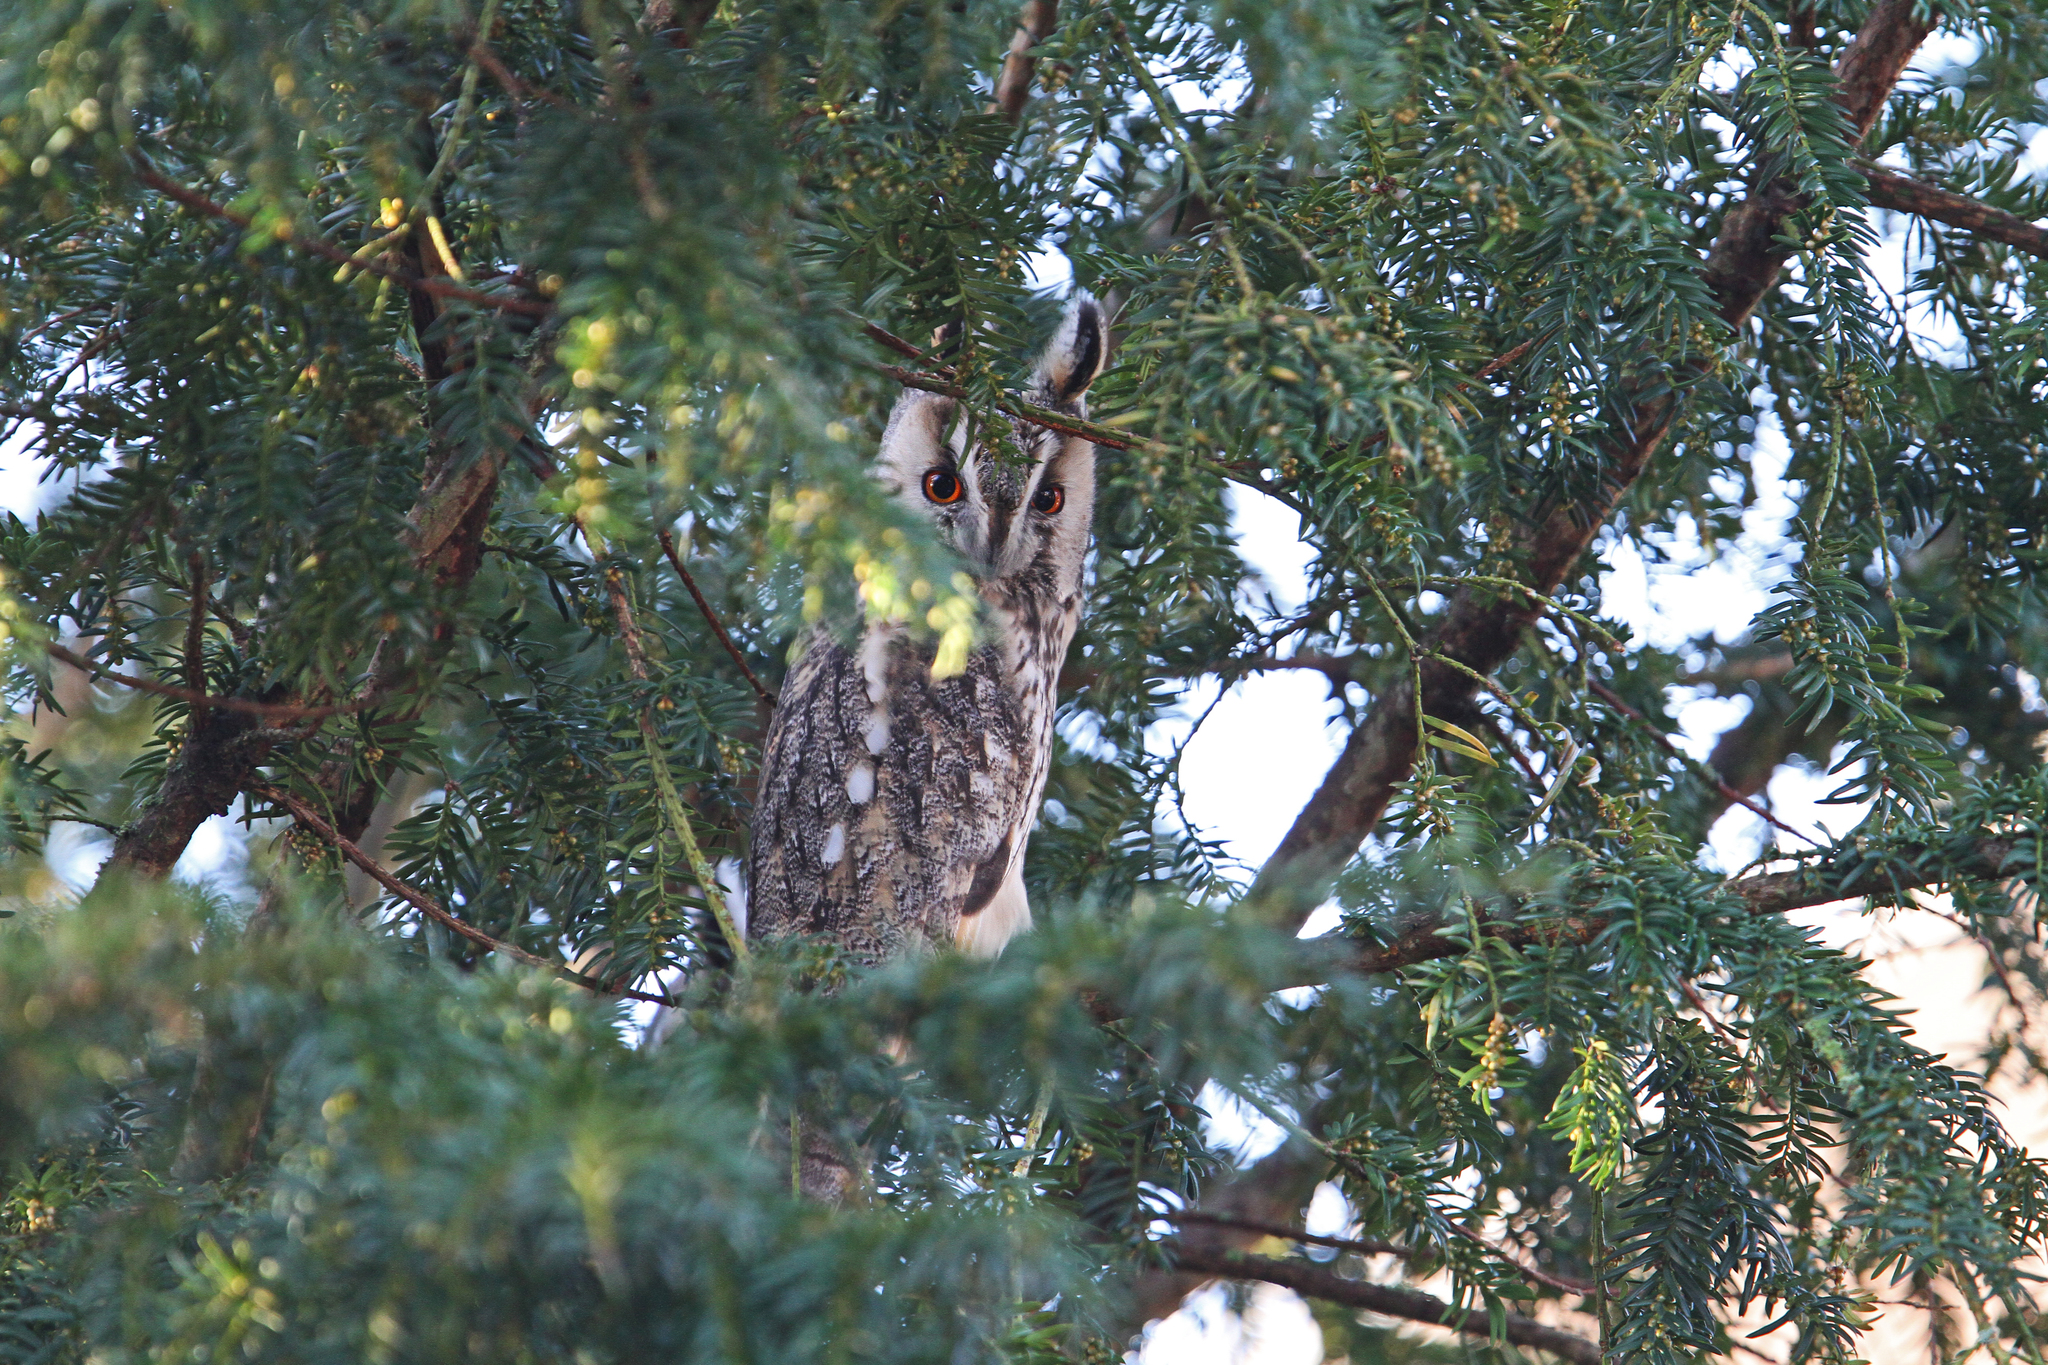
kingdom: Animalia
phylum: Chordata
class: Aves
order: Strigiformes
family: Strigidae
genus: Asio
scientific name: Asio otus
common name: Long-eared owl
